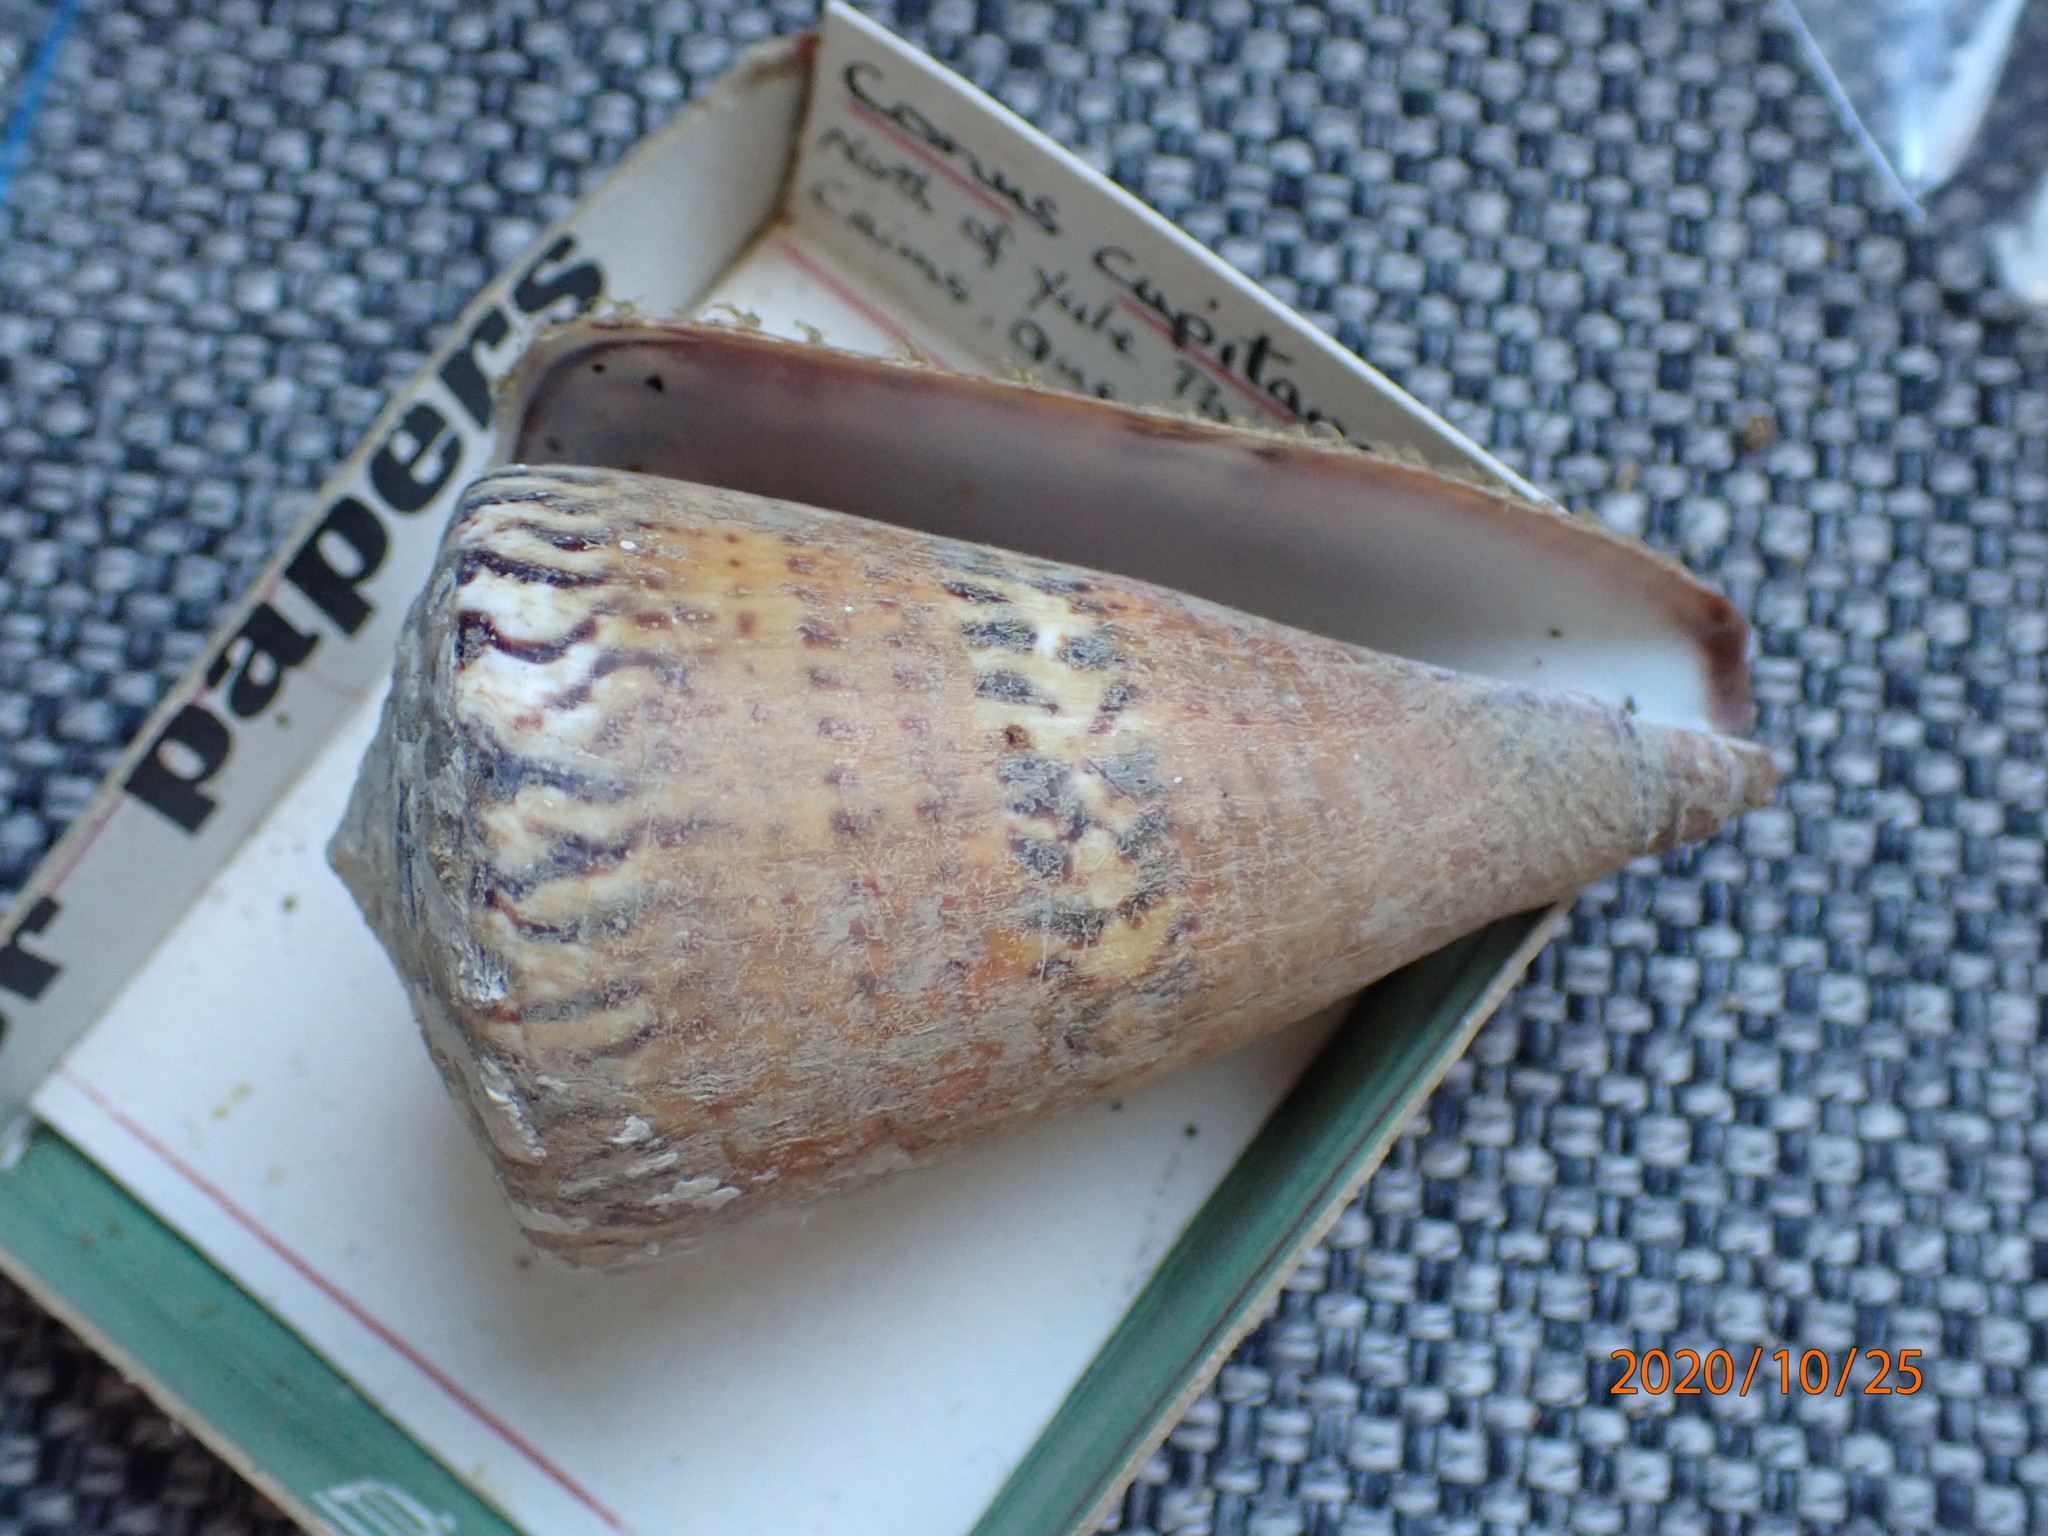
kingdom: Animalia
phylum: Mollusca
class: Gastropoda
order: Neogastropoda
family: Conidae
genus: Conus
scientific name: Conus capitaneus
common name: Captain cone
